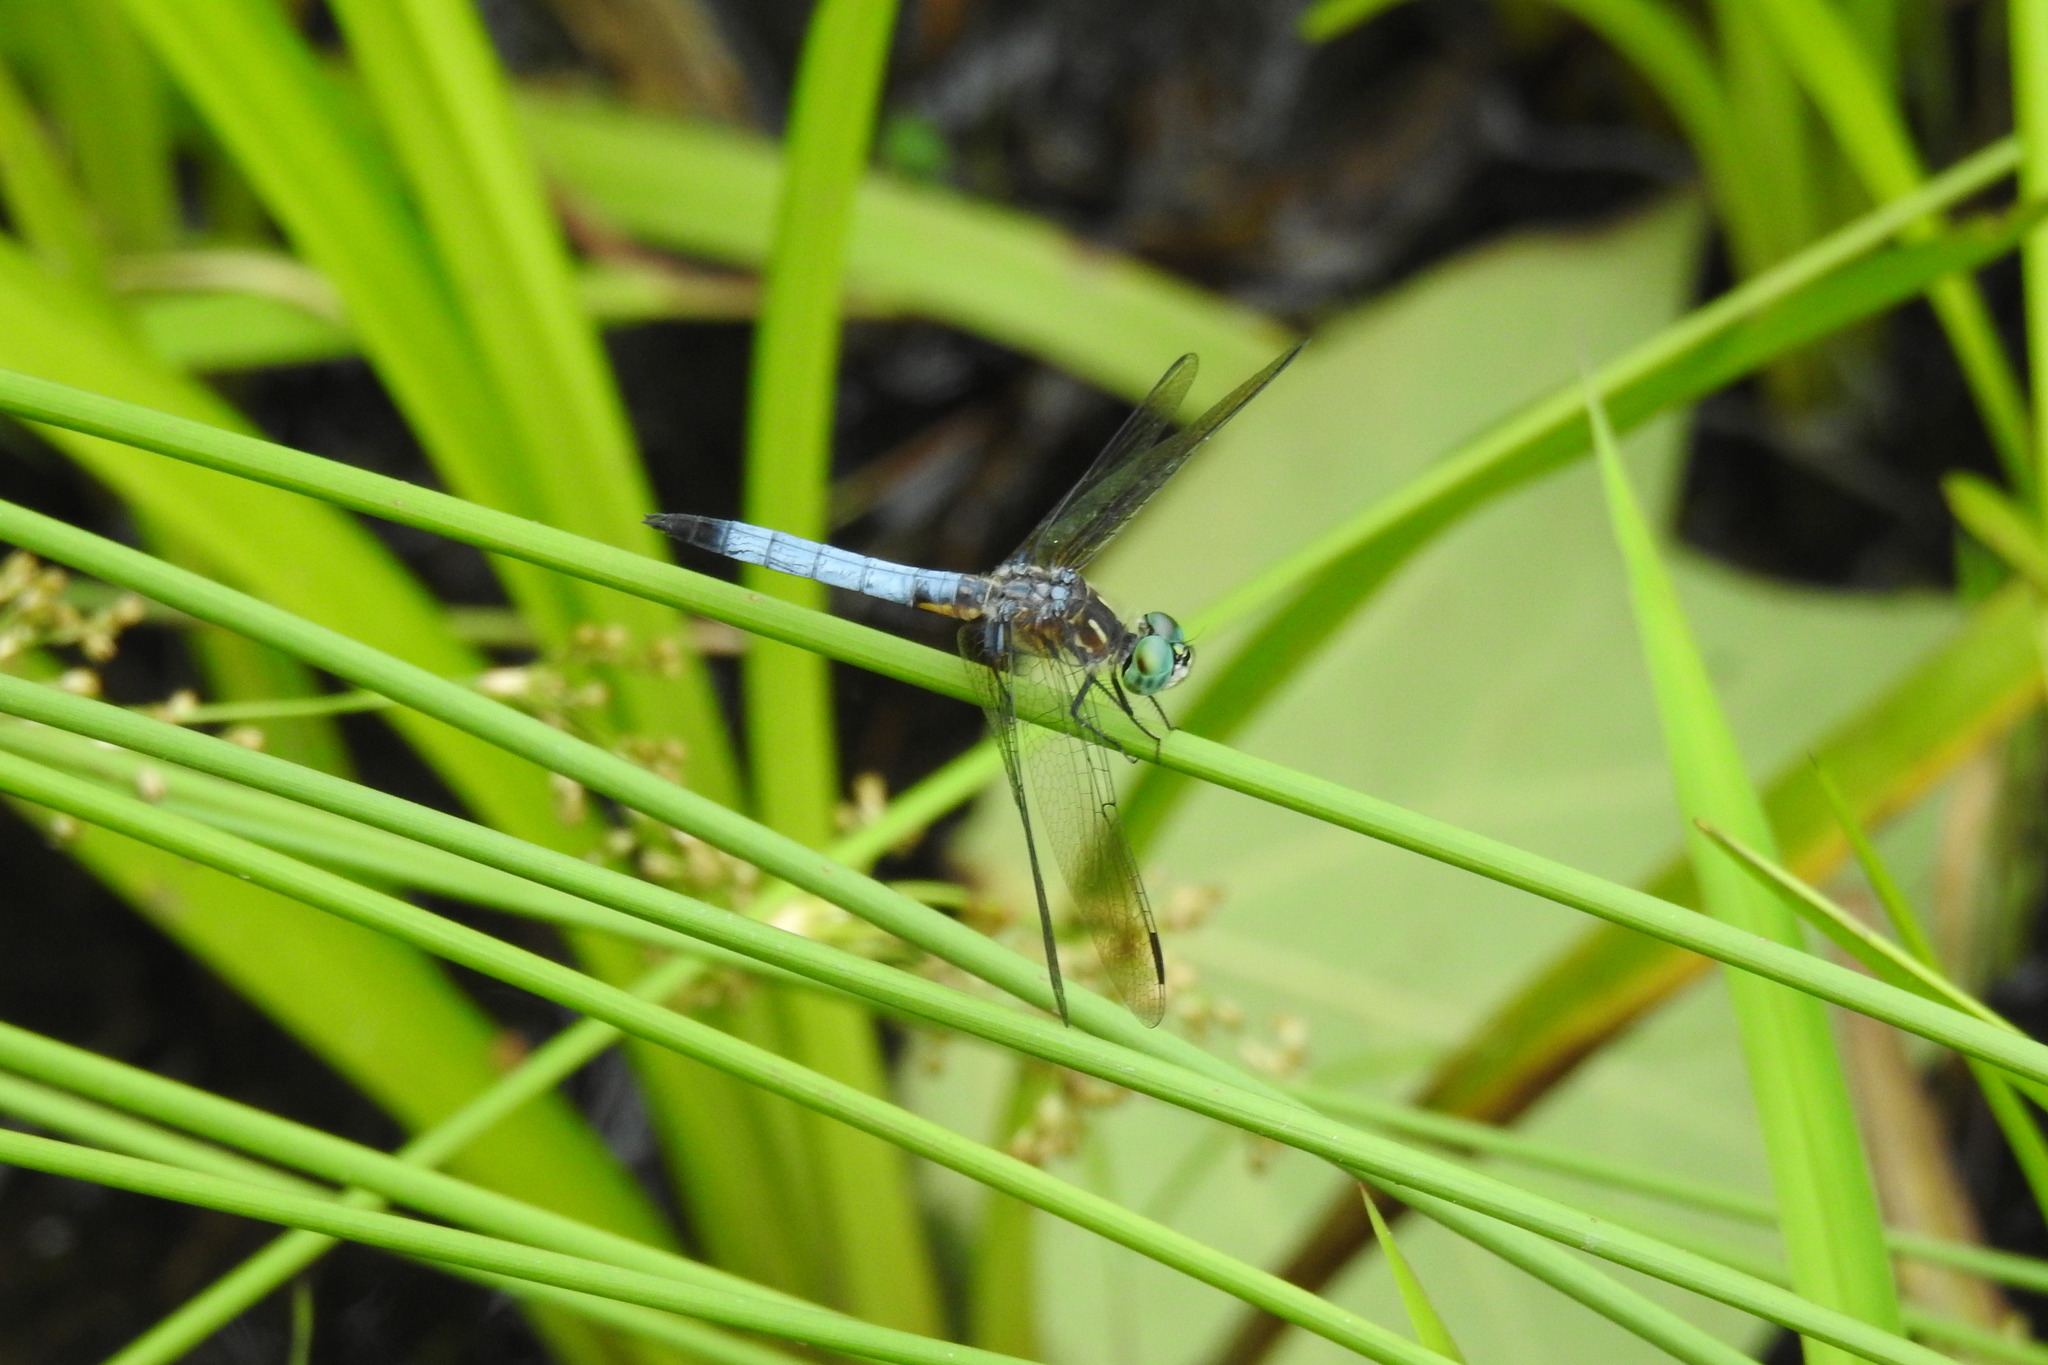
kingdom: Animalia
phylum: Arthropoda
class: Insecta
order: Odonata
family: Libellulidae
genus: Pachydiplax
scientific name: Pachydiplax longipennis
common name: Blue dasher
